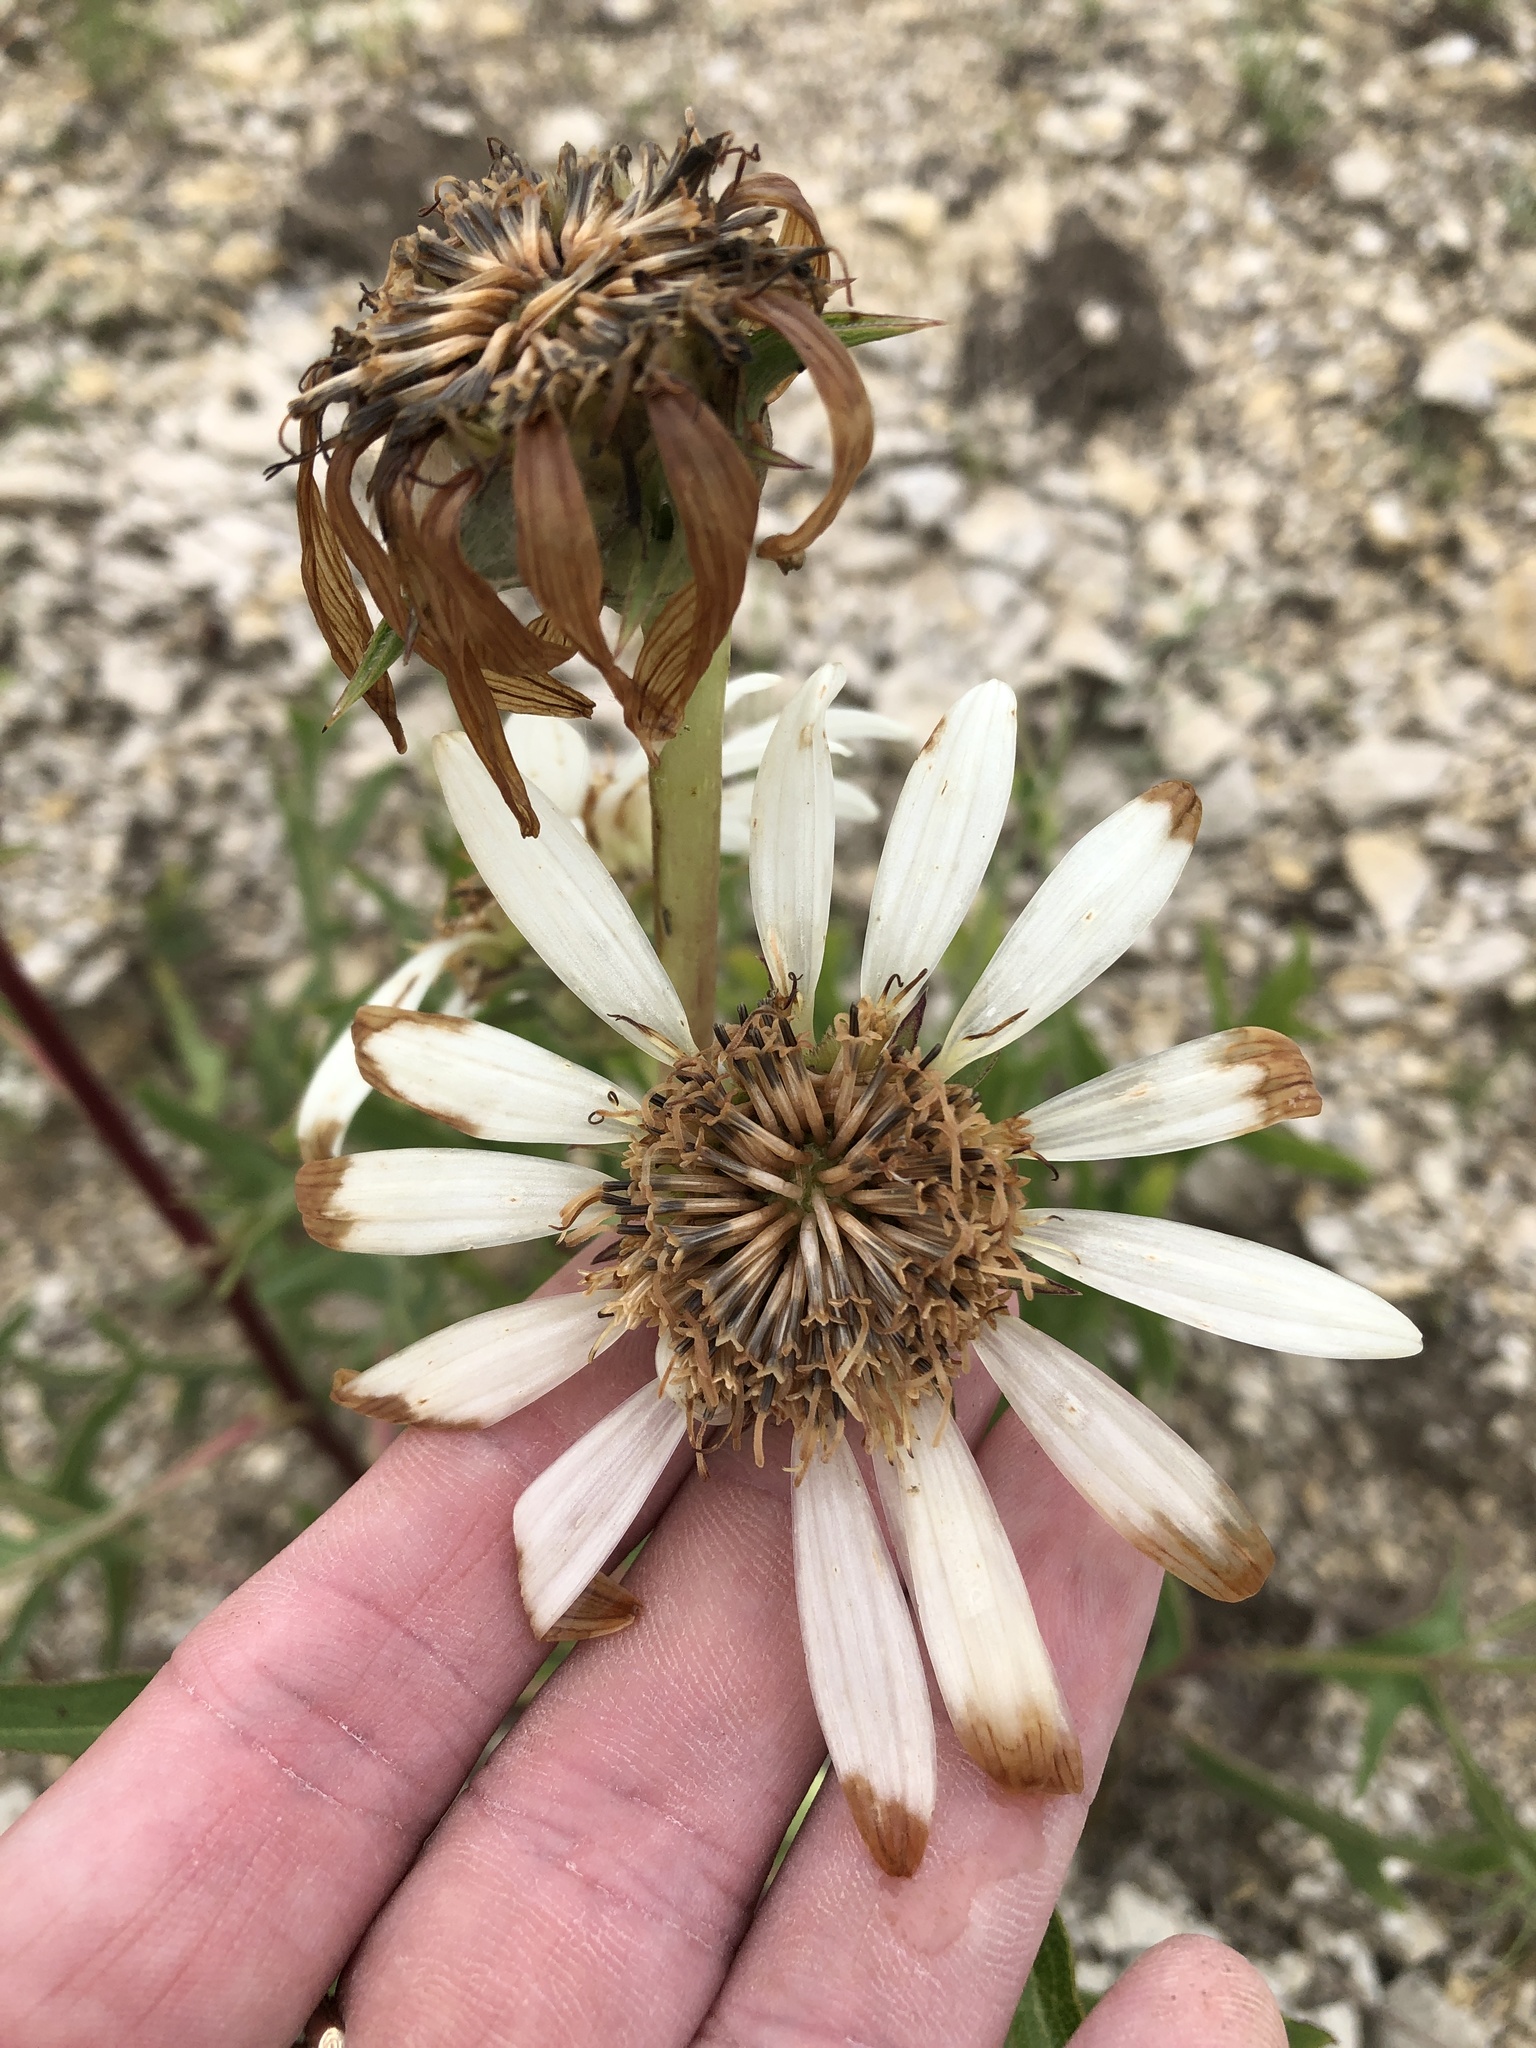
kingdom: Plantae
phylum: Tracheophyta
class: Magnoliopsida
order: Asterales
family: Asteraceae
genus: Silphium
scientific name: Silphium albiflorum
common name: White rosinweed
